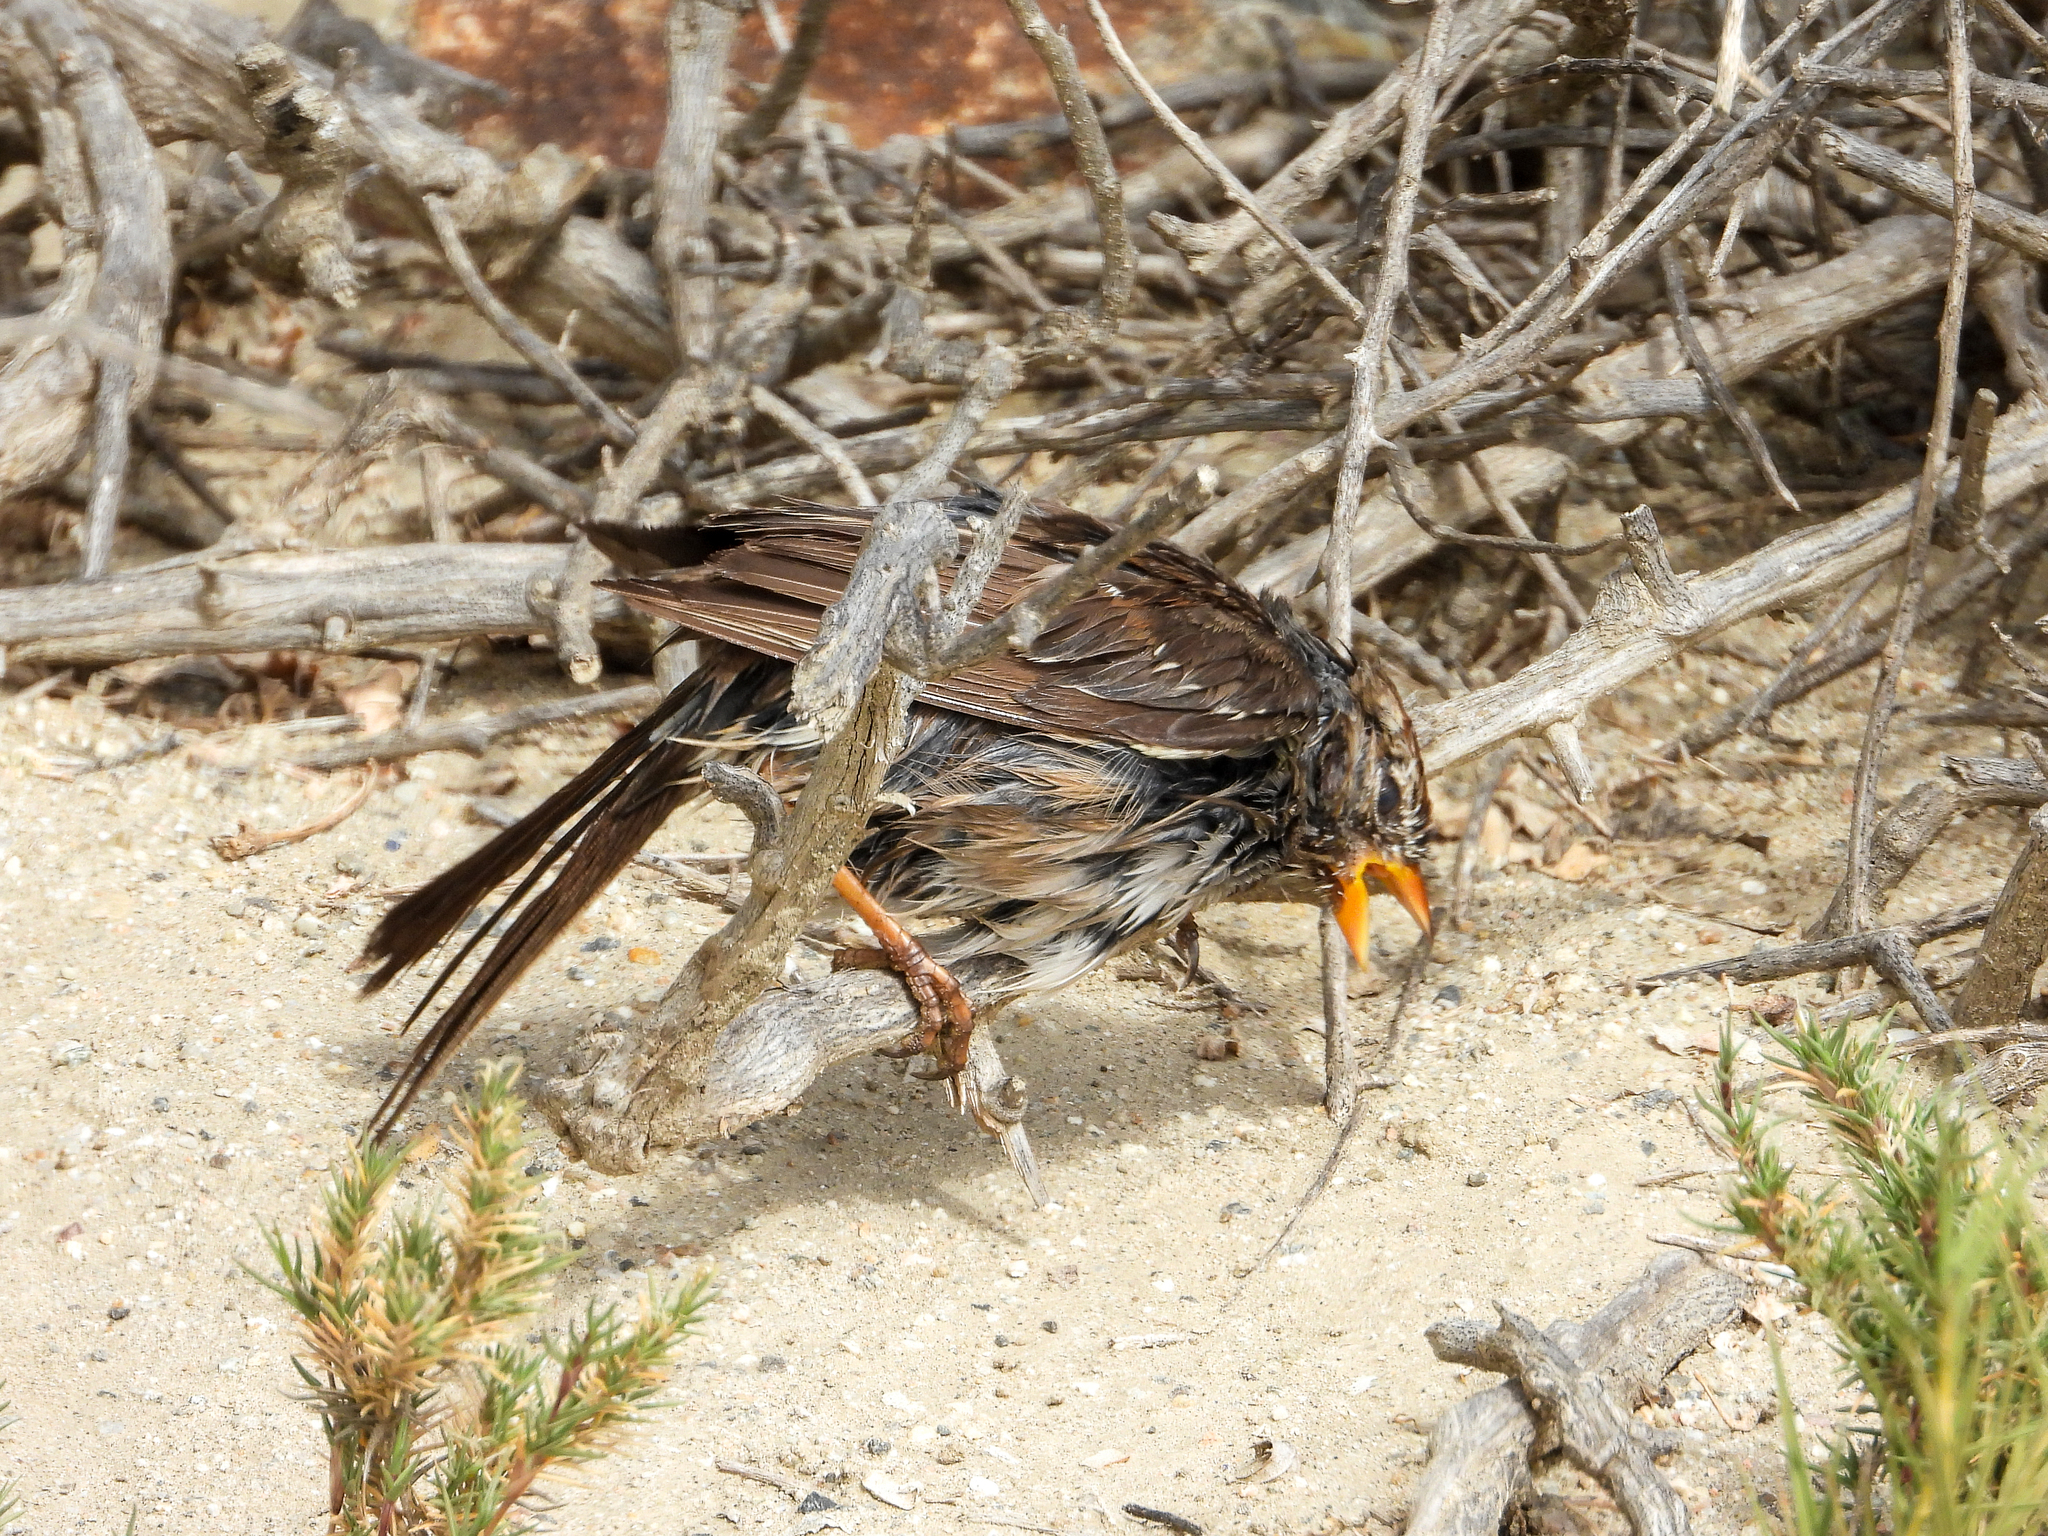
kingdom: Animalia
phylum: Chordata
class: Aves
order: Passeriformes
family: Passerellidae
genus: Zonotrichia
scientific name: Zonotrichia leucophrys
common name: White-crowned sparrow
